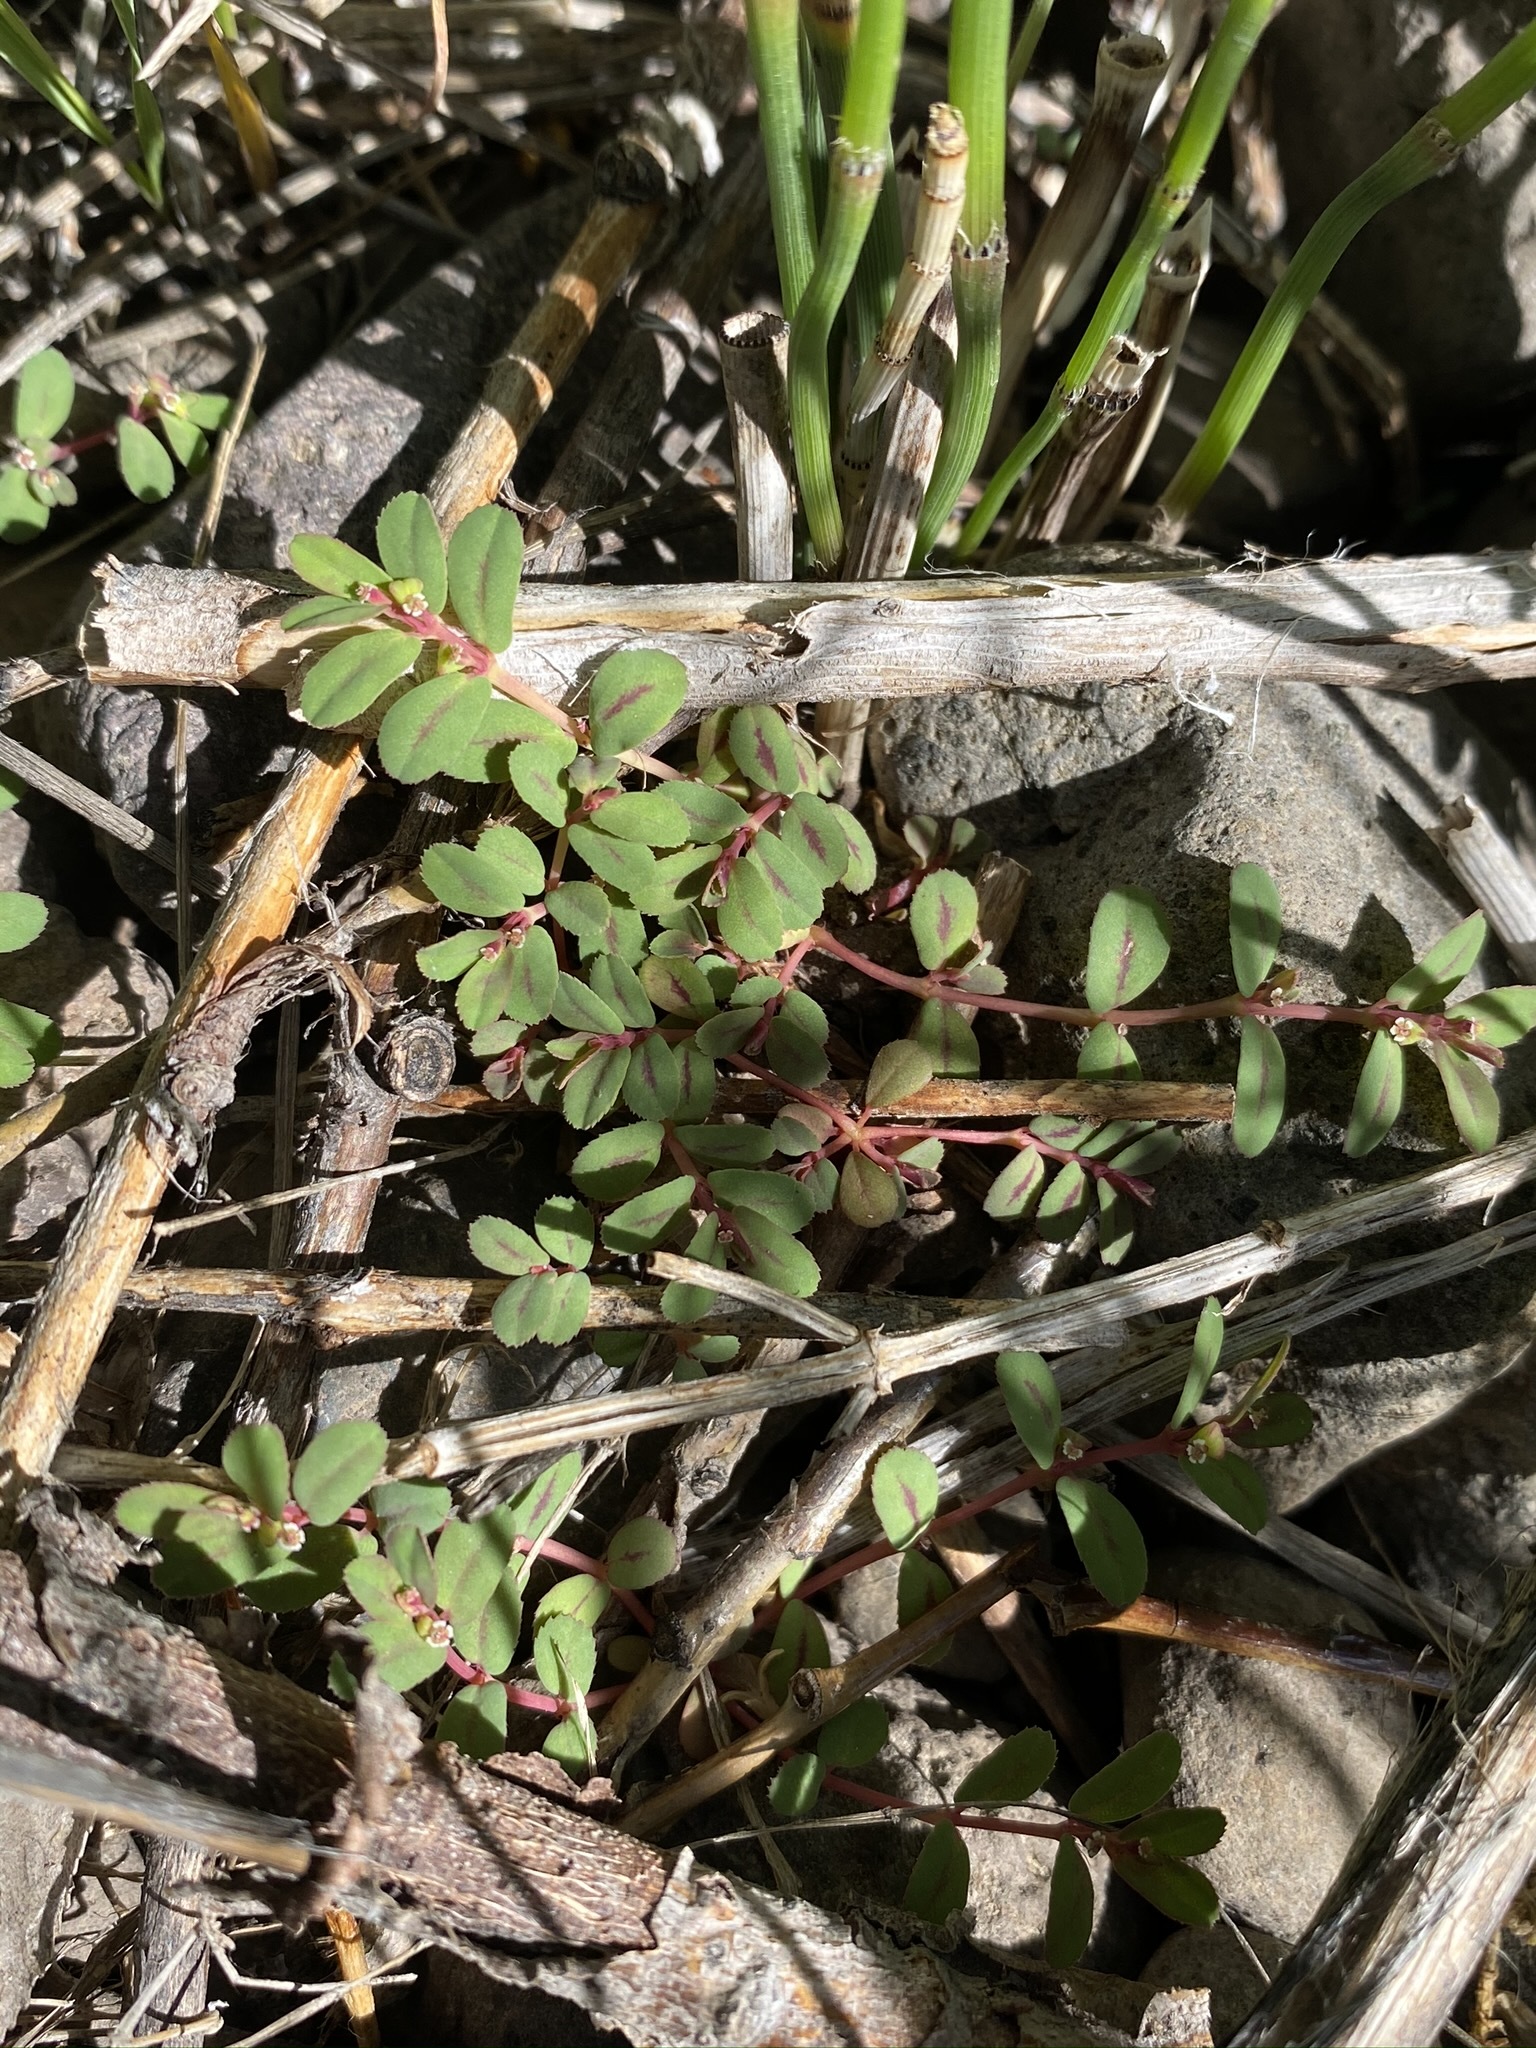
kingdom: Plantae
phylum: Tracheophyta
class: Magnoliopsida
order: Malpighiales
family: Euphorbiaceae
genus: Euphorbia
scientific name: Euphorbia serpillifolia
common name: Thyme-leaf spurge
